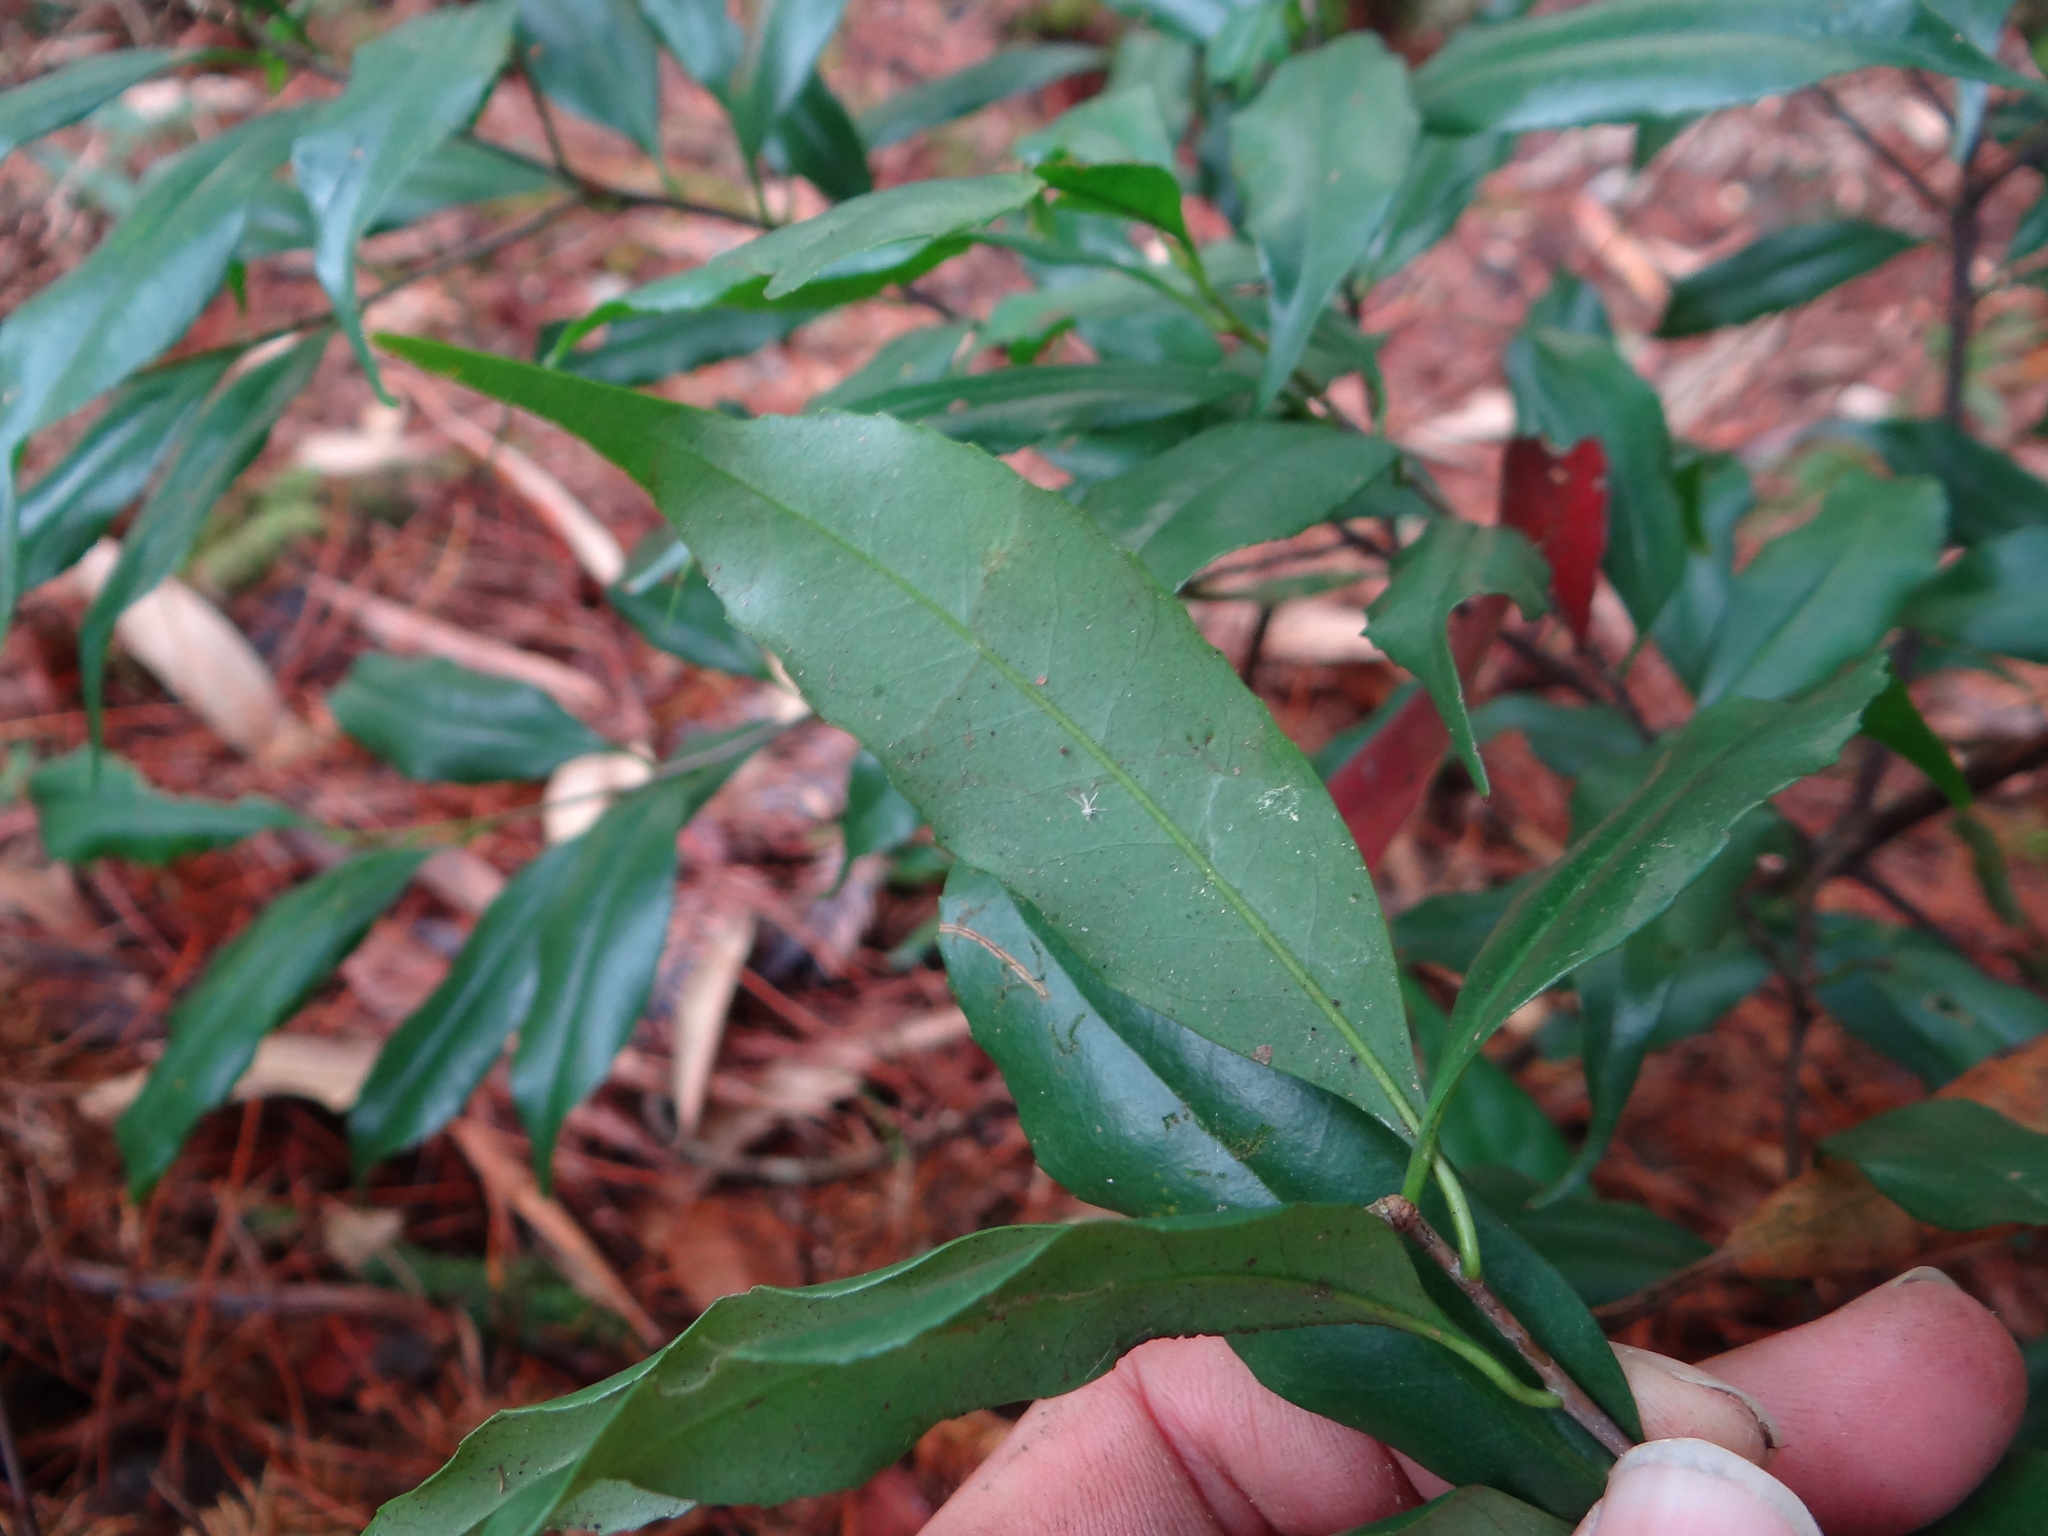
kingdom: Plantae
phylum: Tracheophyta
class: Magnoliopsida
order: Ericales
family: Symplocaceae
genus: Symplocos
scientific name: Symplocos heishanensis
